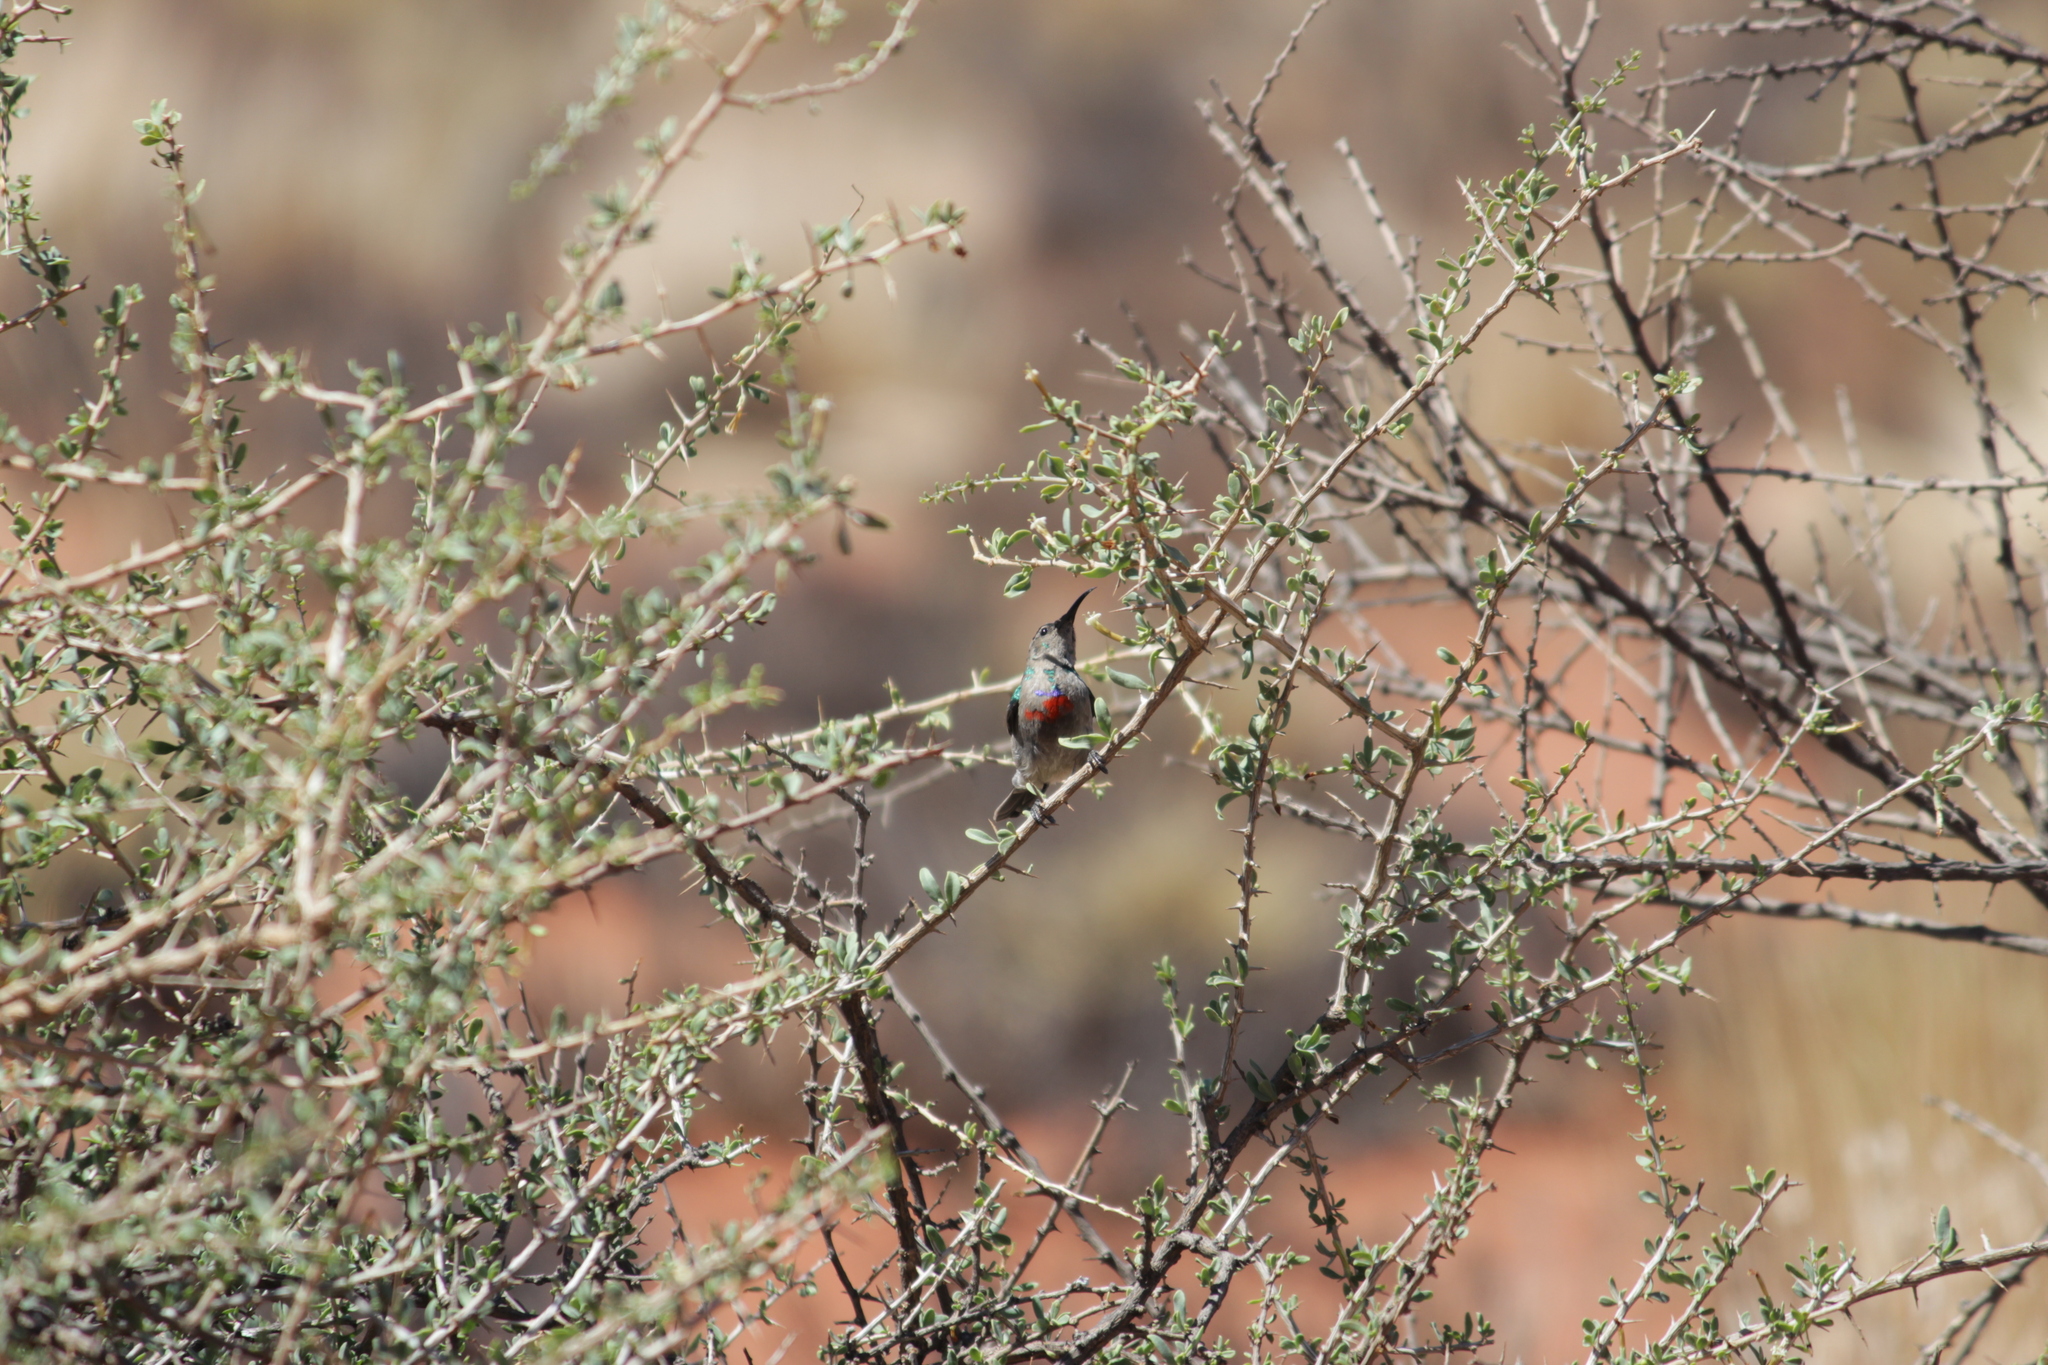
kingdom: Animalia
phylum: Chordata
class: Aves
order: Passeriformes
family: Nectariniidae
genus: Cinnyris
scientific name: Cinnyris chalybeus
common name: Southern double-collared sunbird
